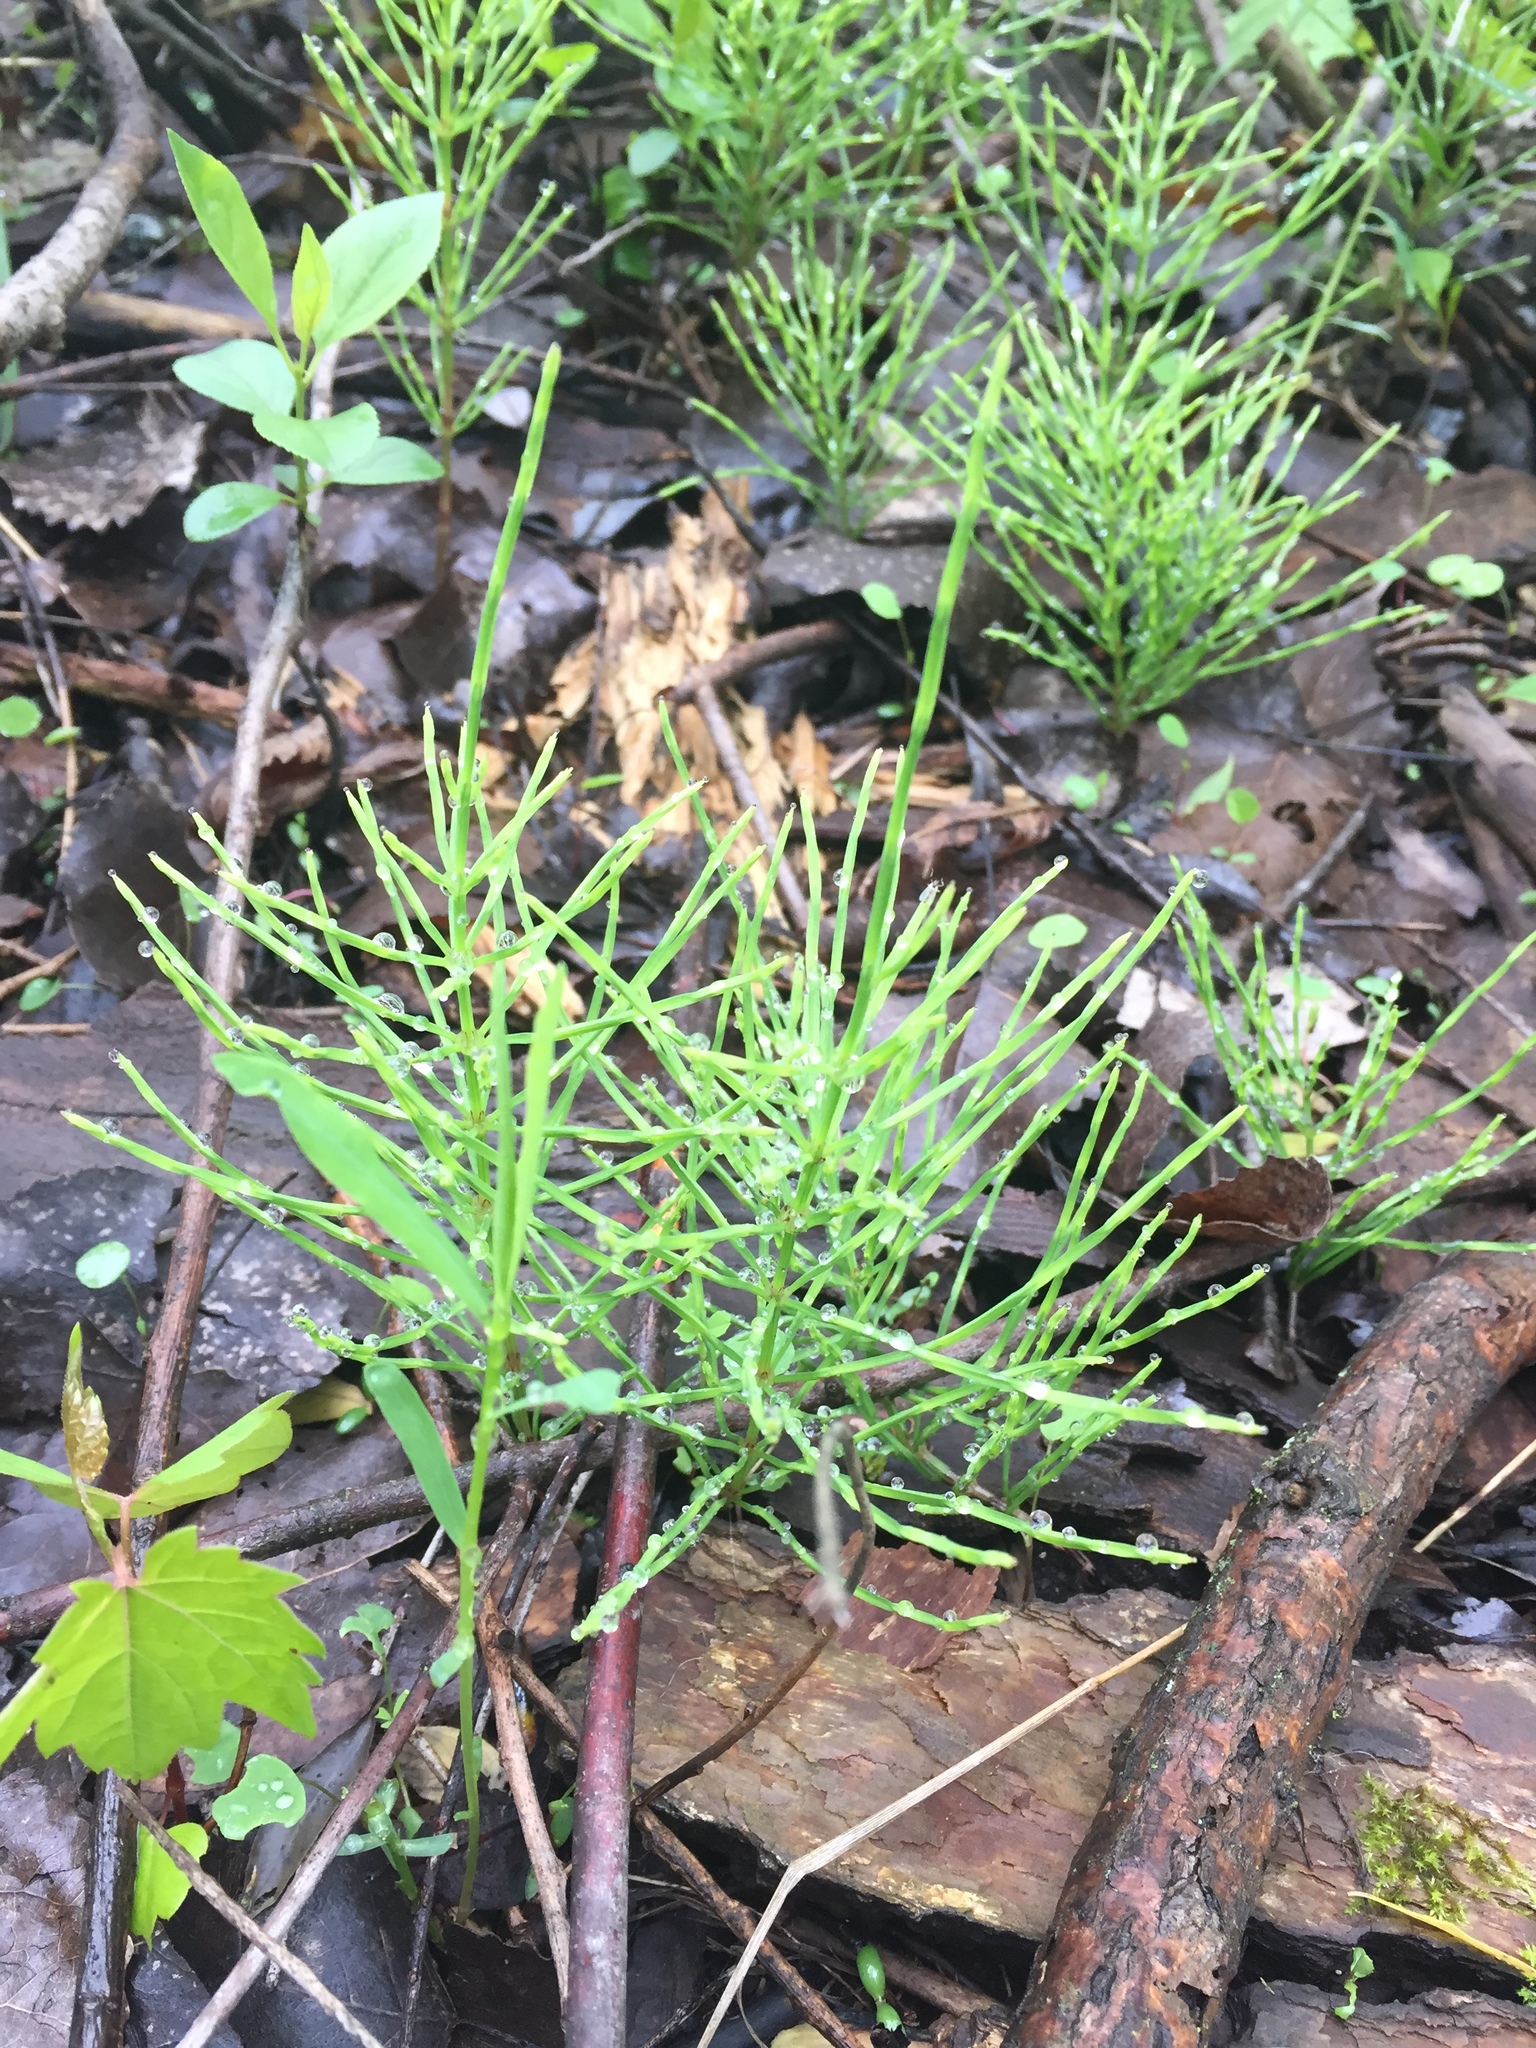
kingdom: Plantae
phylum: Tracheophyta
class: Polypodiopsida
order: Equisetales
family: Equisetaceae
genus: Equisetum
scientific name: Equisetum arvense
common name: Field horsetail
